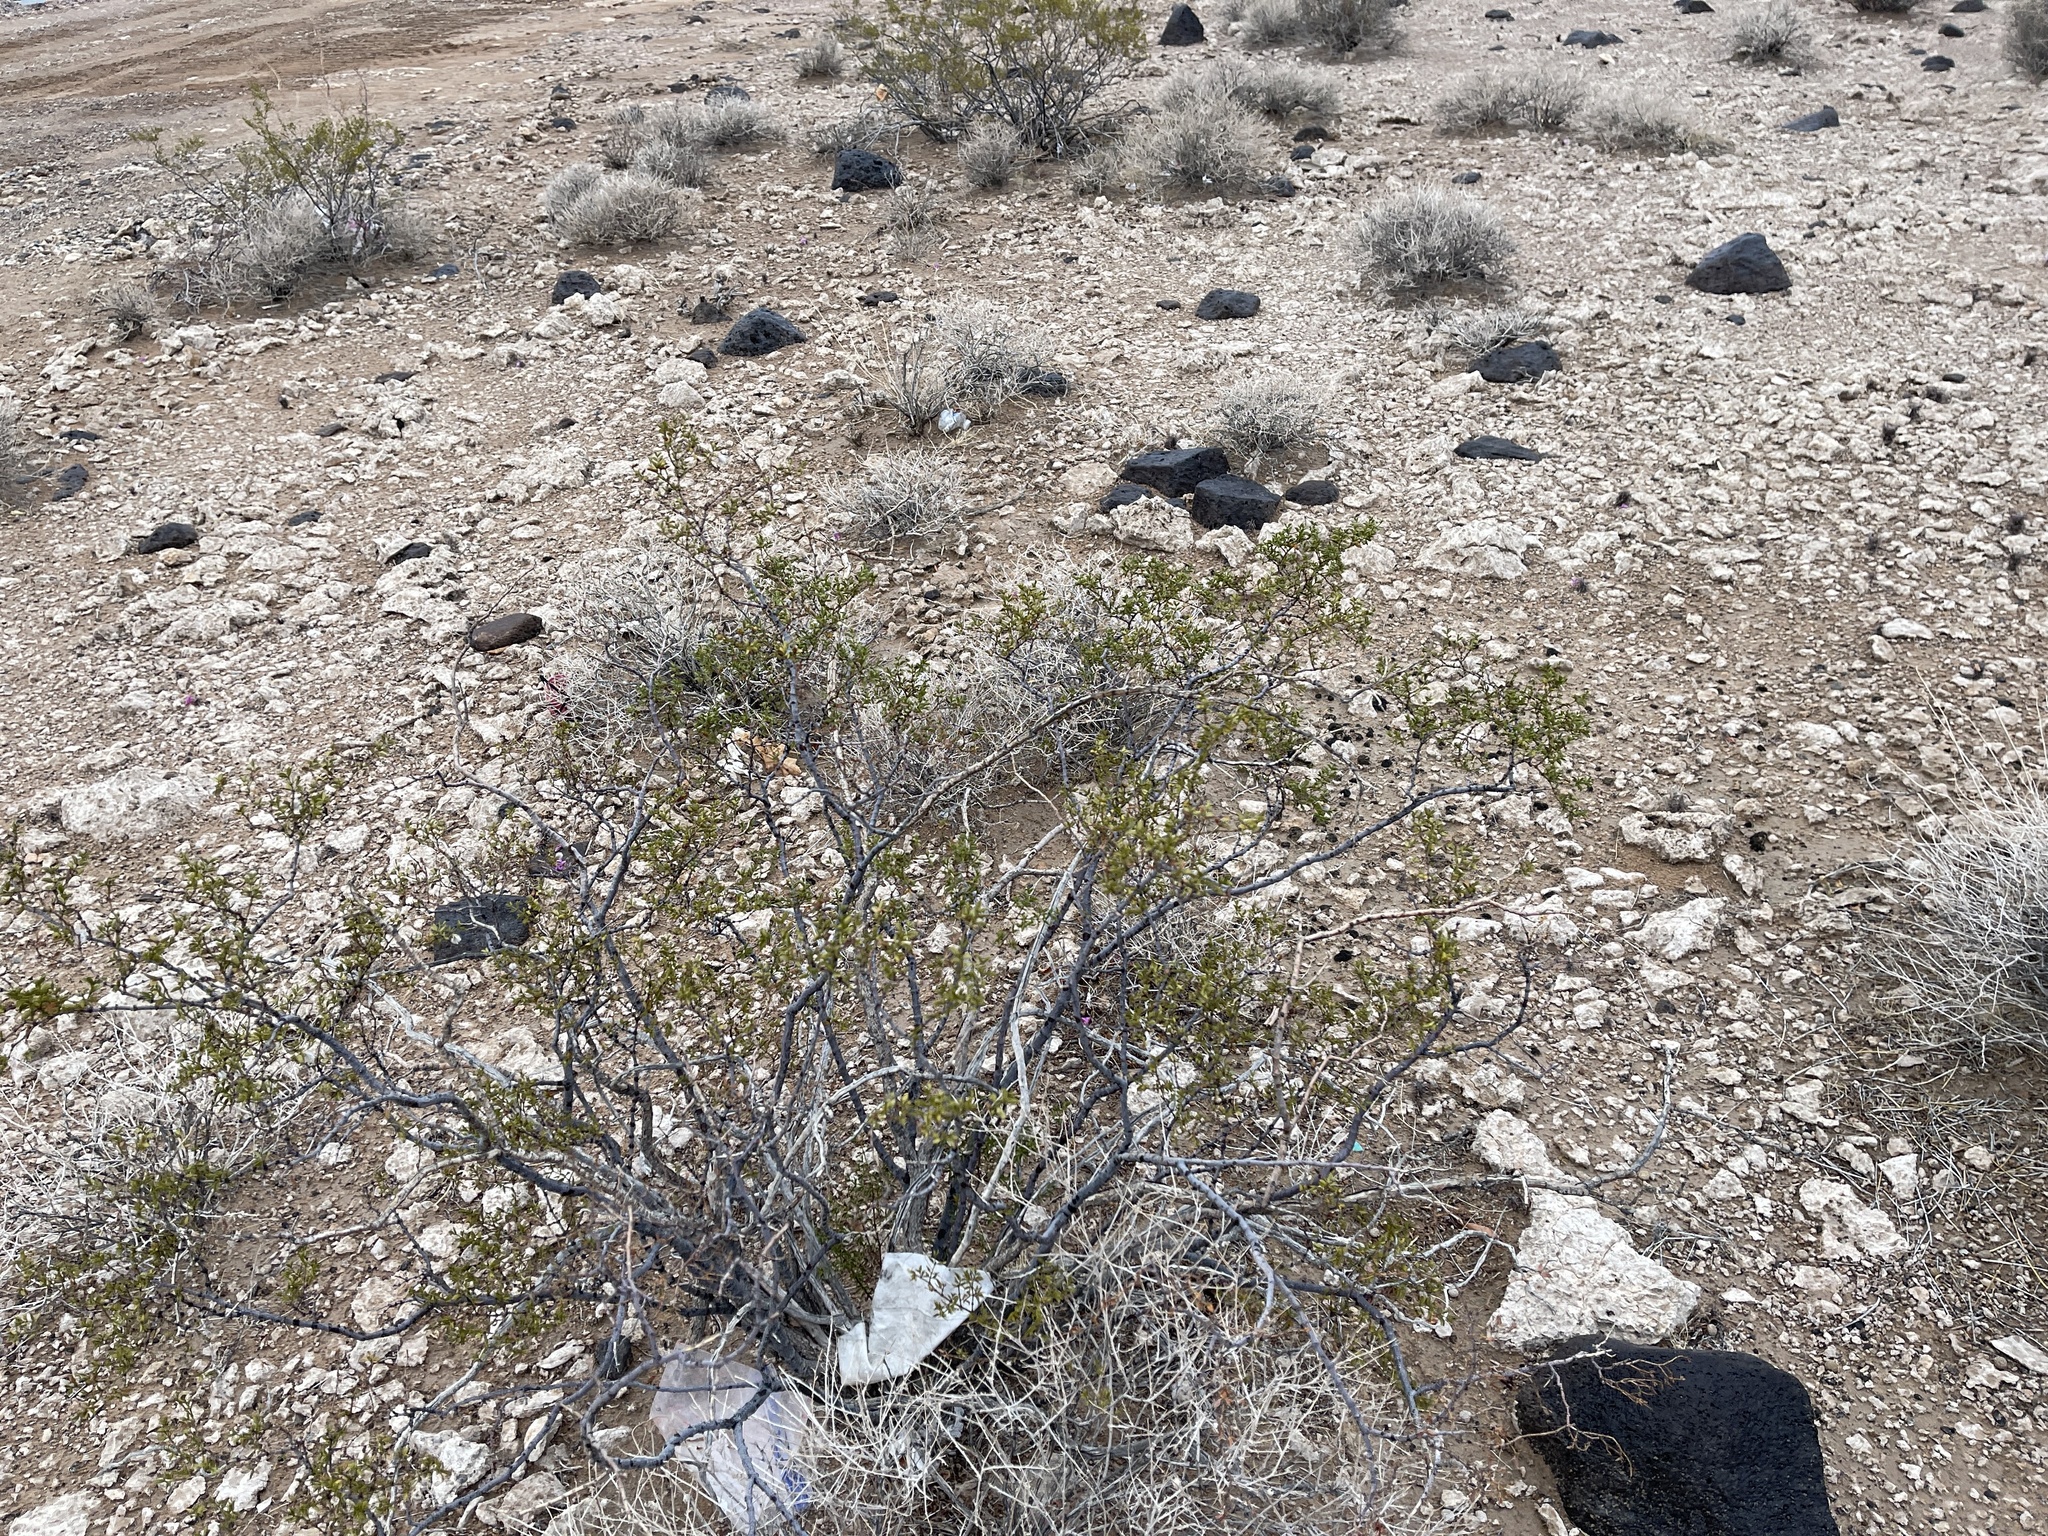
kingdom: Plantae
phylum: Tracheophyta
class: Magnoliopsida
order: Zygophyllales
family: Zygophyllaceae
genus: Larrea
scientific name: Larrea tridentata
